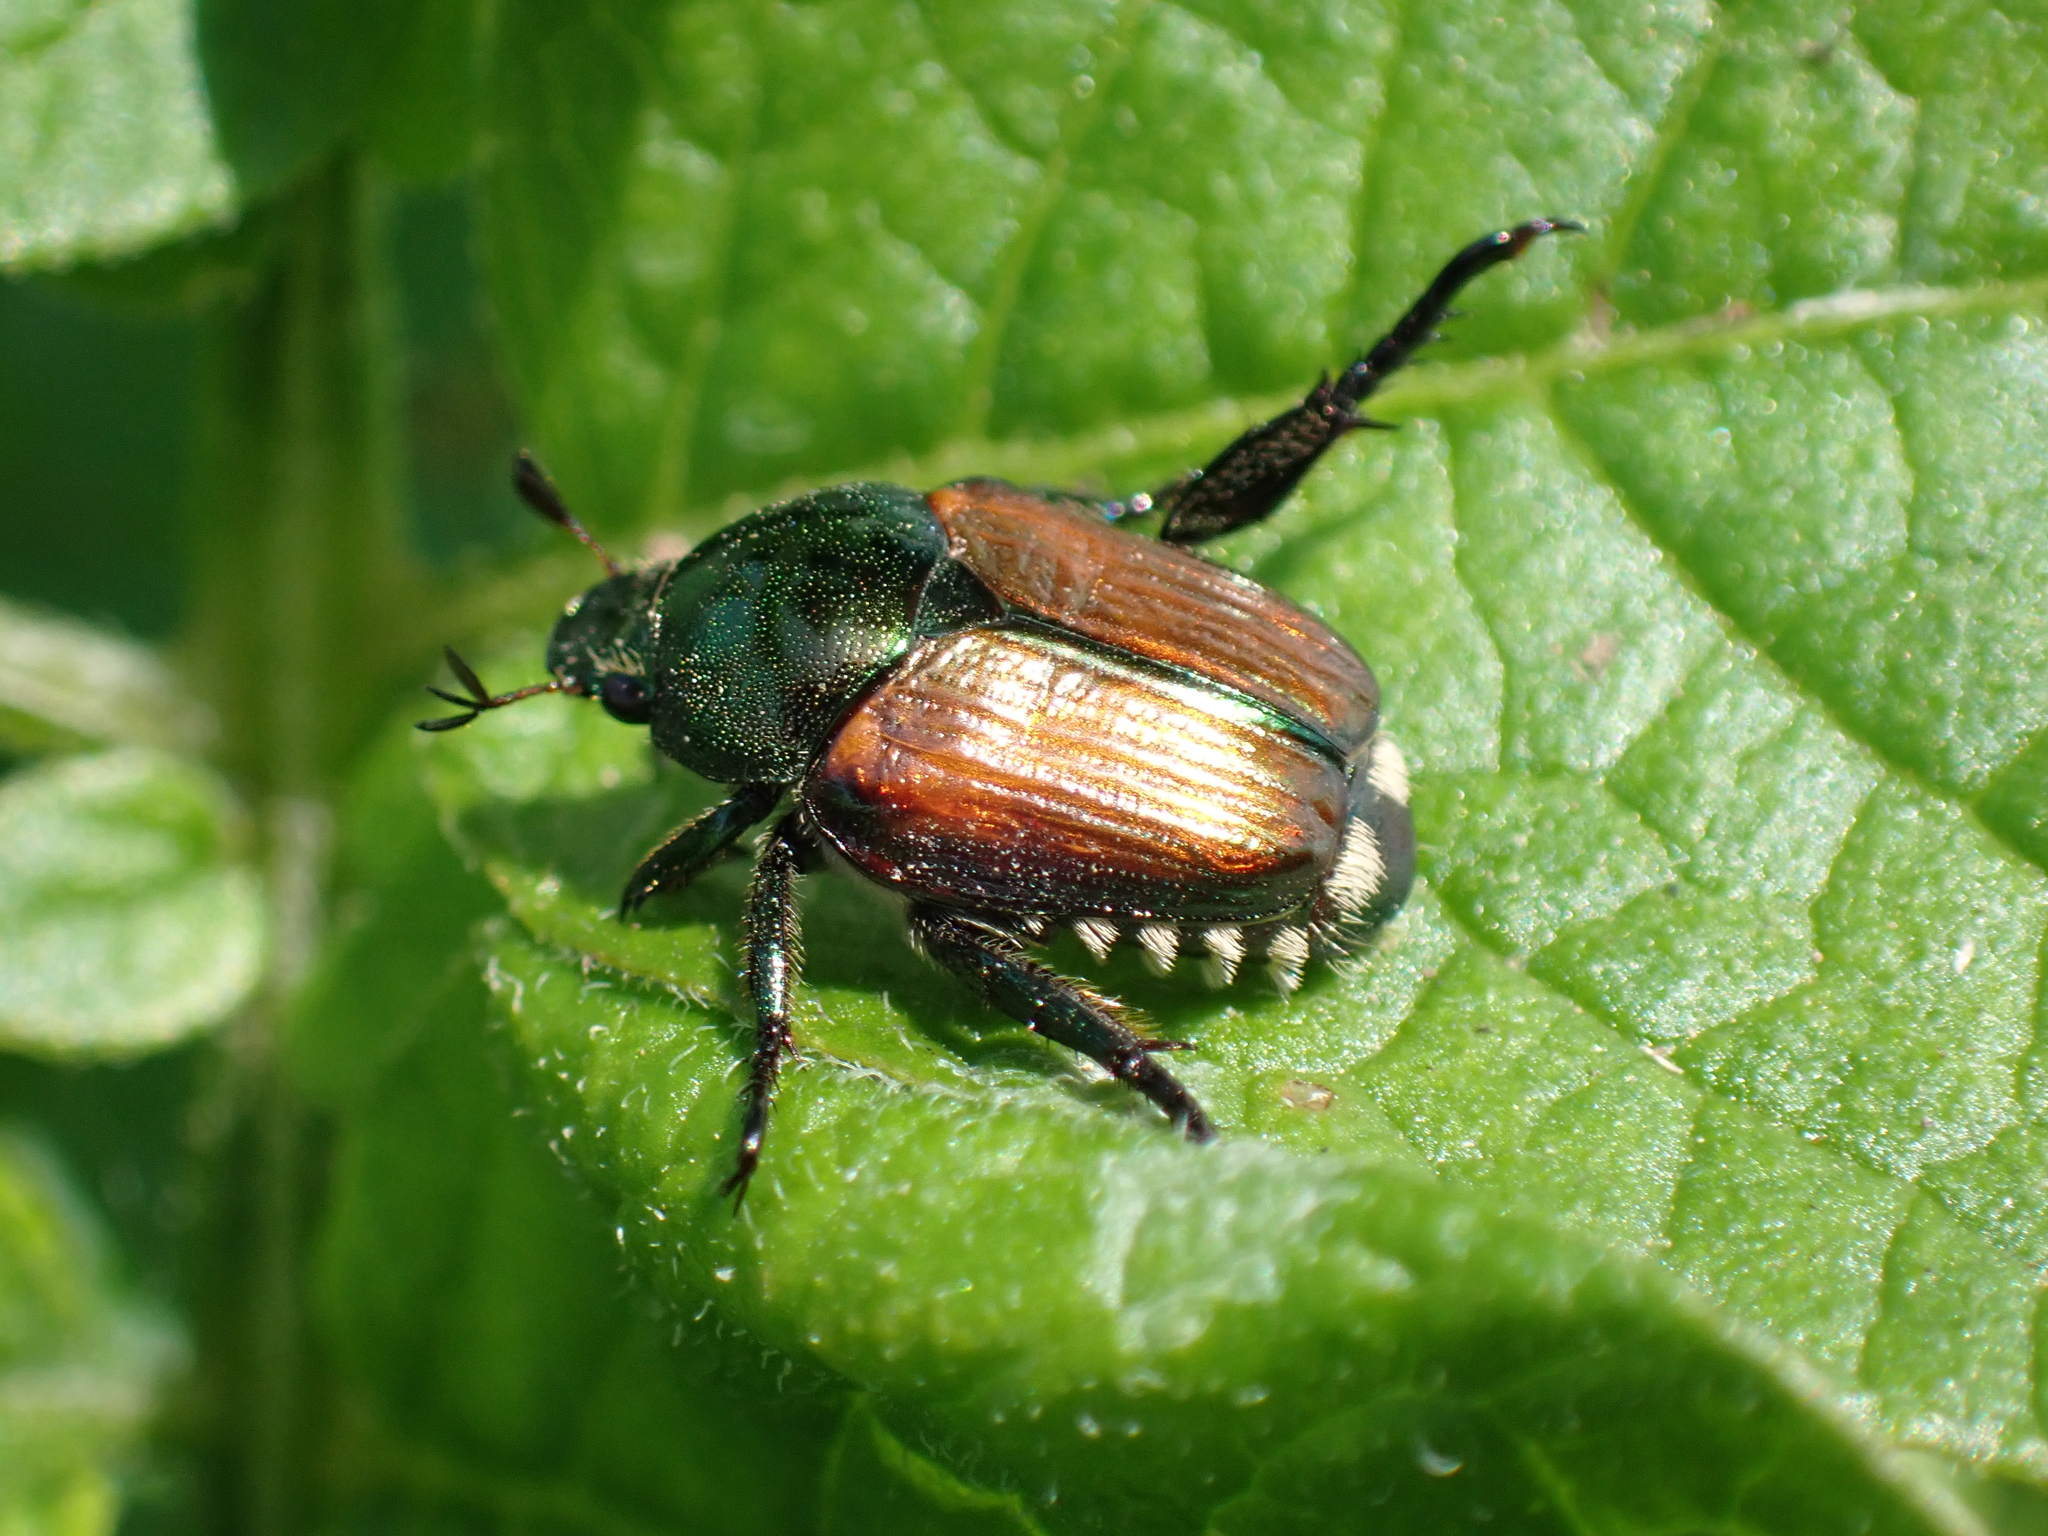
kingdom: Animalia
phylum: Arthropoda
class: Insecta
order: Coleoptera
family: Scarabaeidae
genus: Popillia
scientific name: Popillia japonica
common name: Japanese beetle
